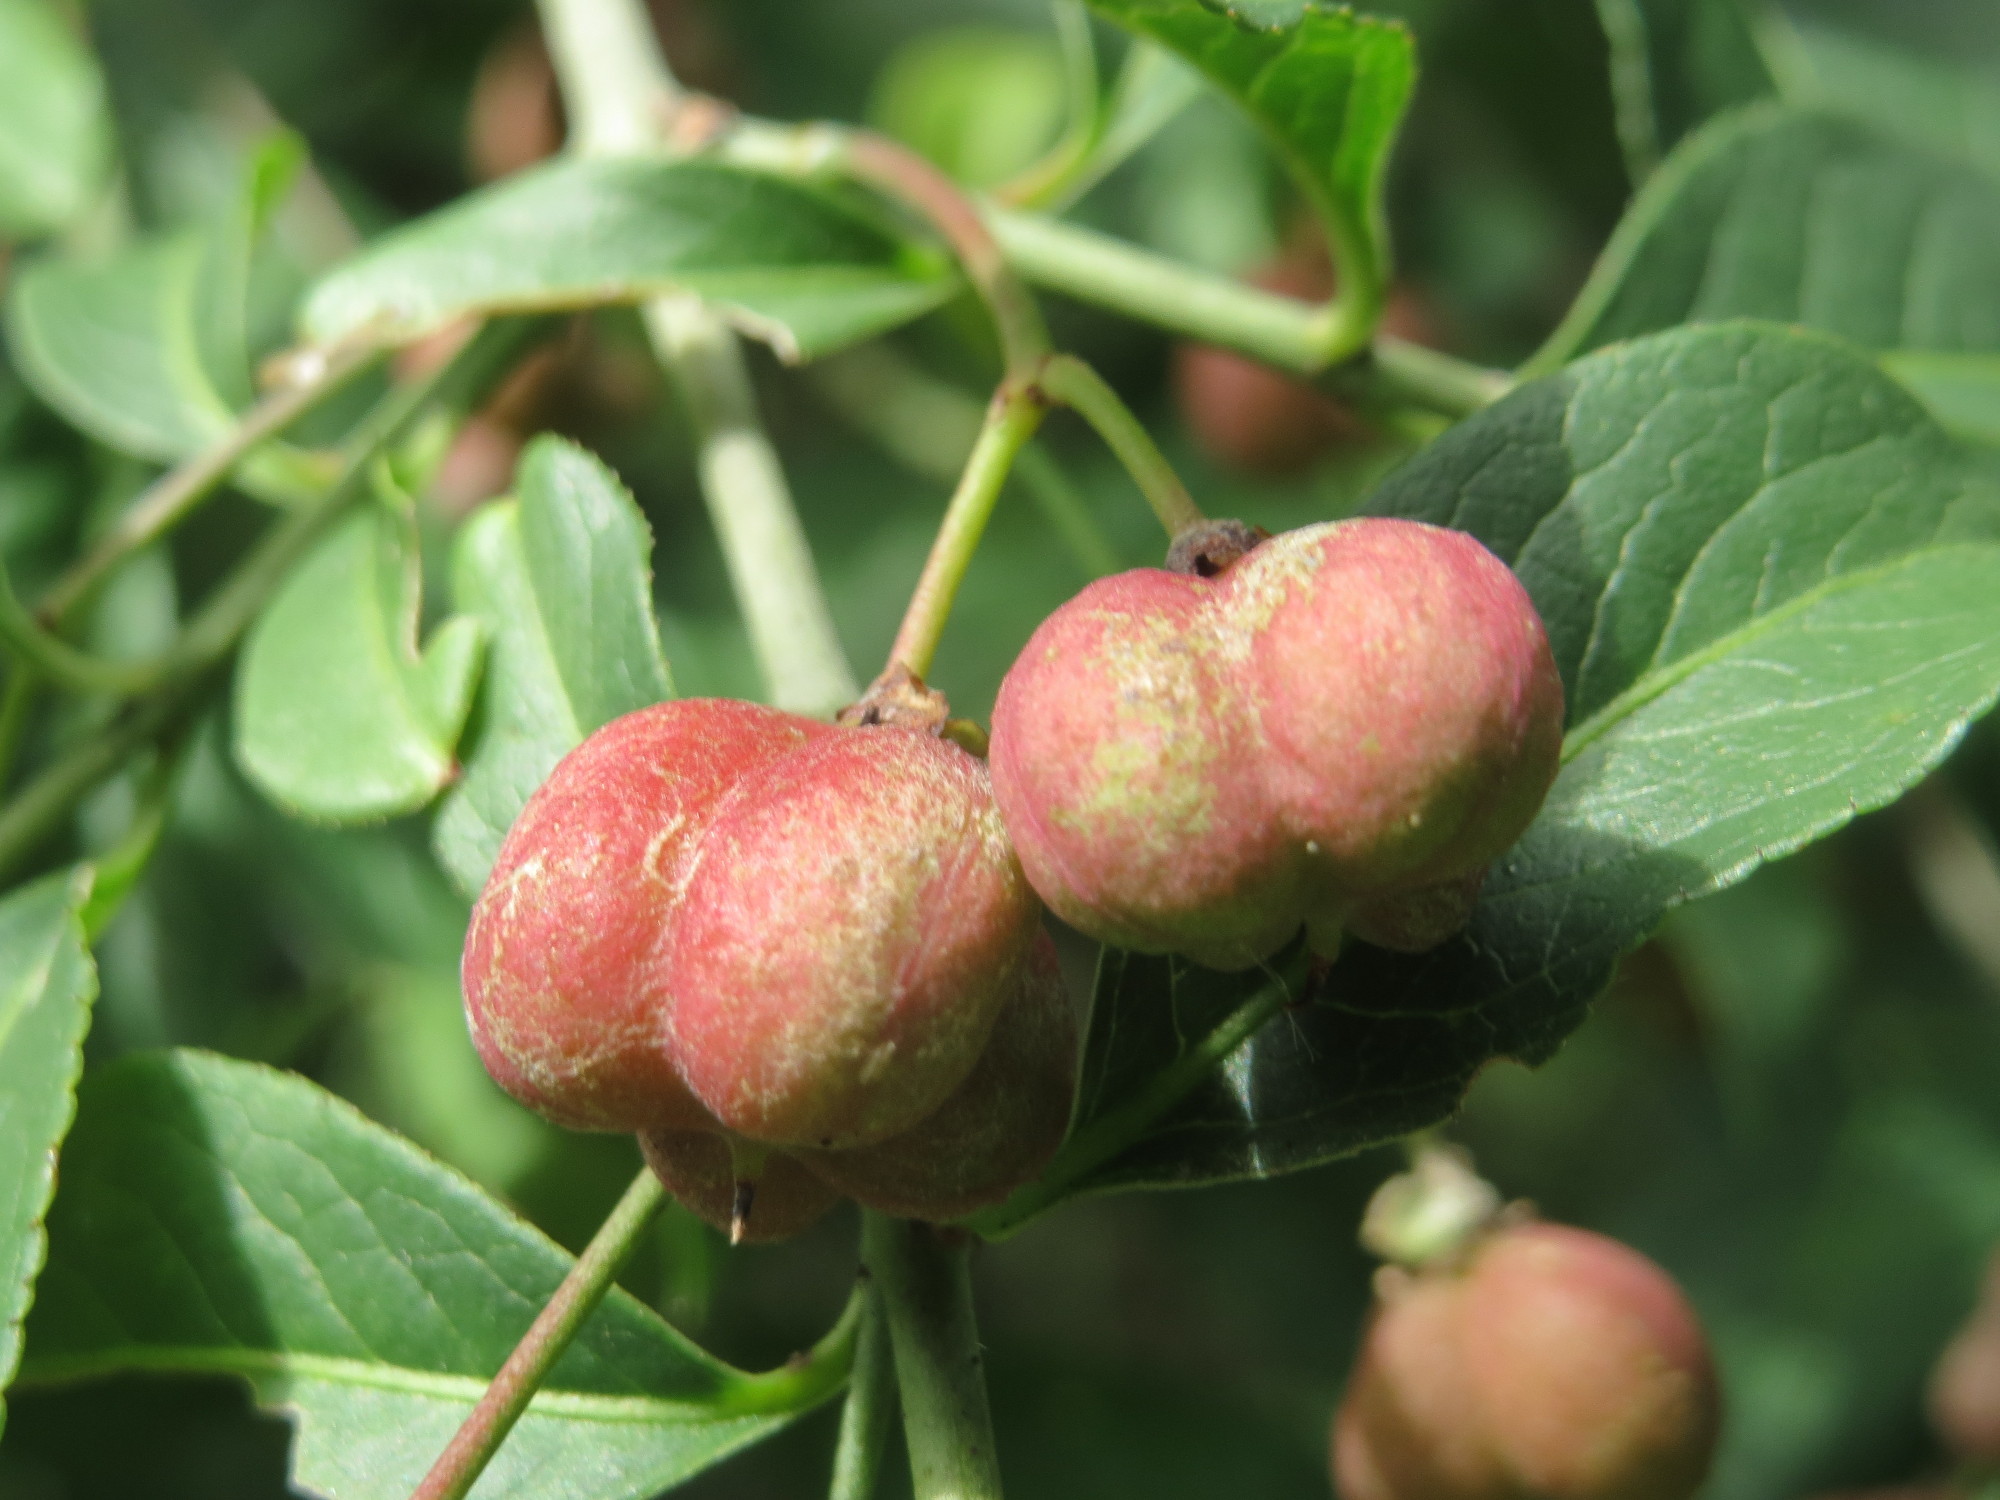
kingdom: Plantae
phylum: Tracheophyta
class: Magnoliopsida
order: Celastrales
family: Celastraceae
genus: Euonymus
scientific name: Euonymus europaeus
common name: Spindle
